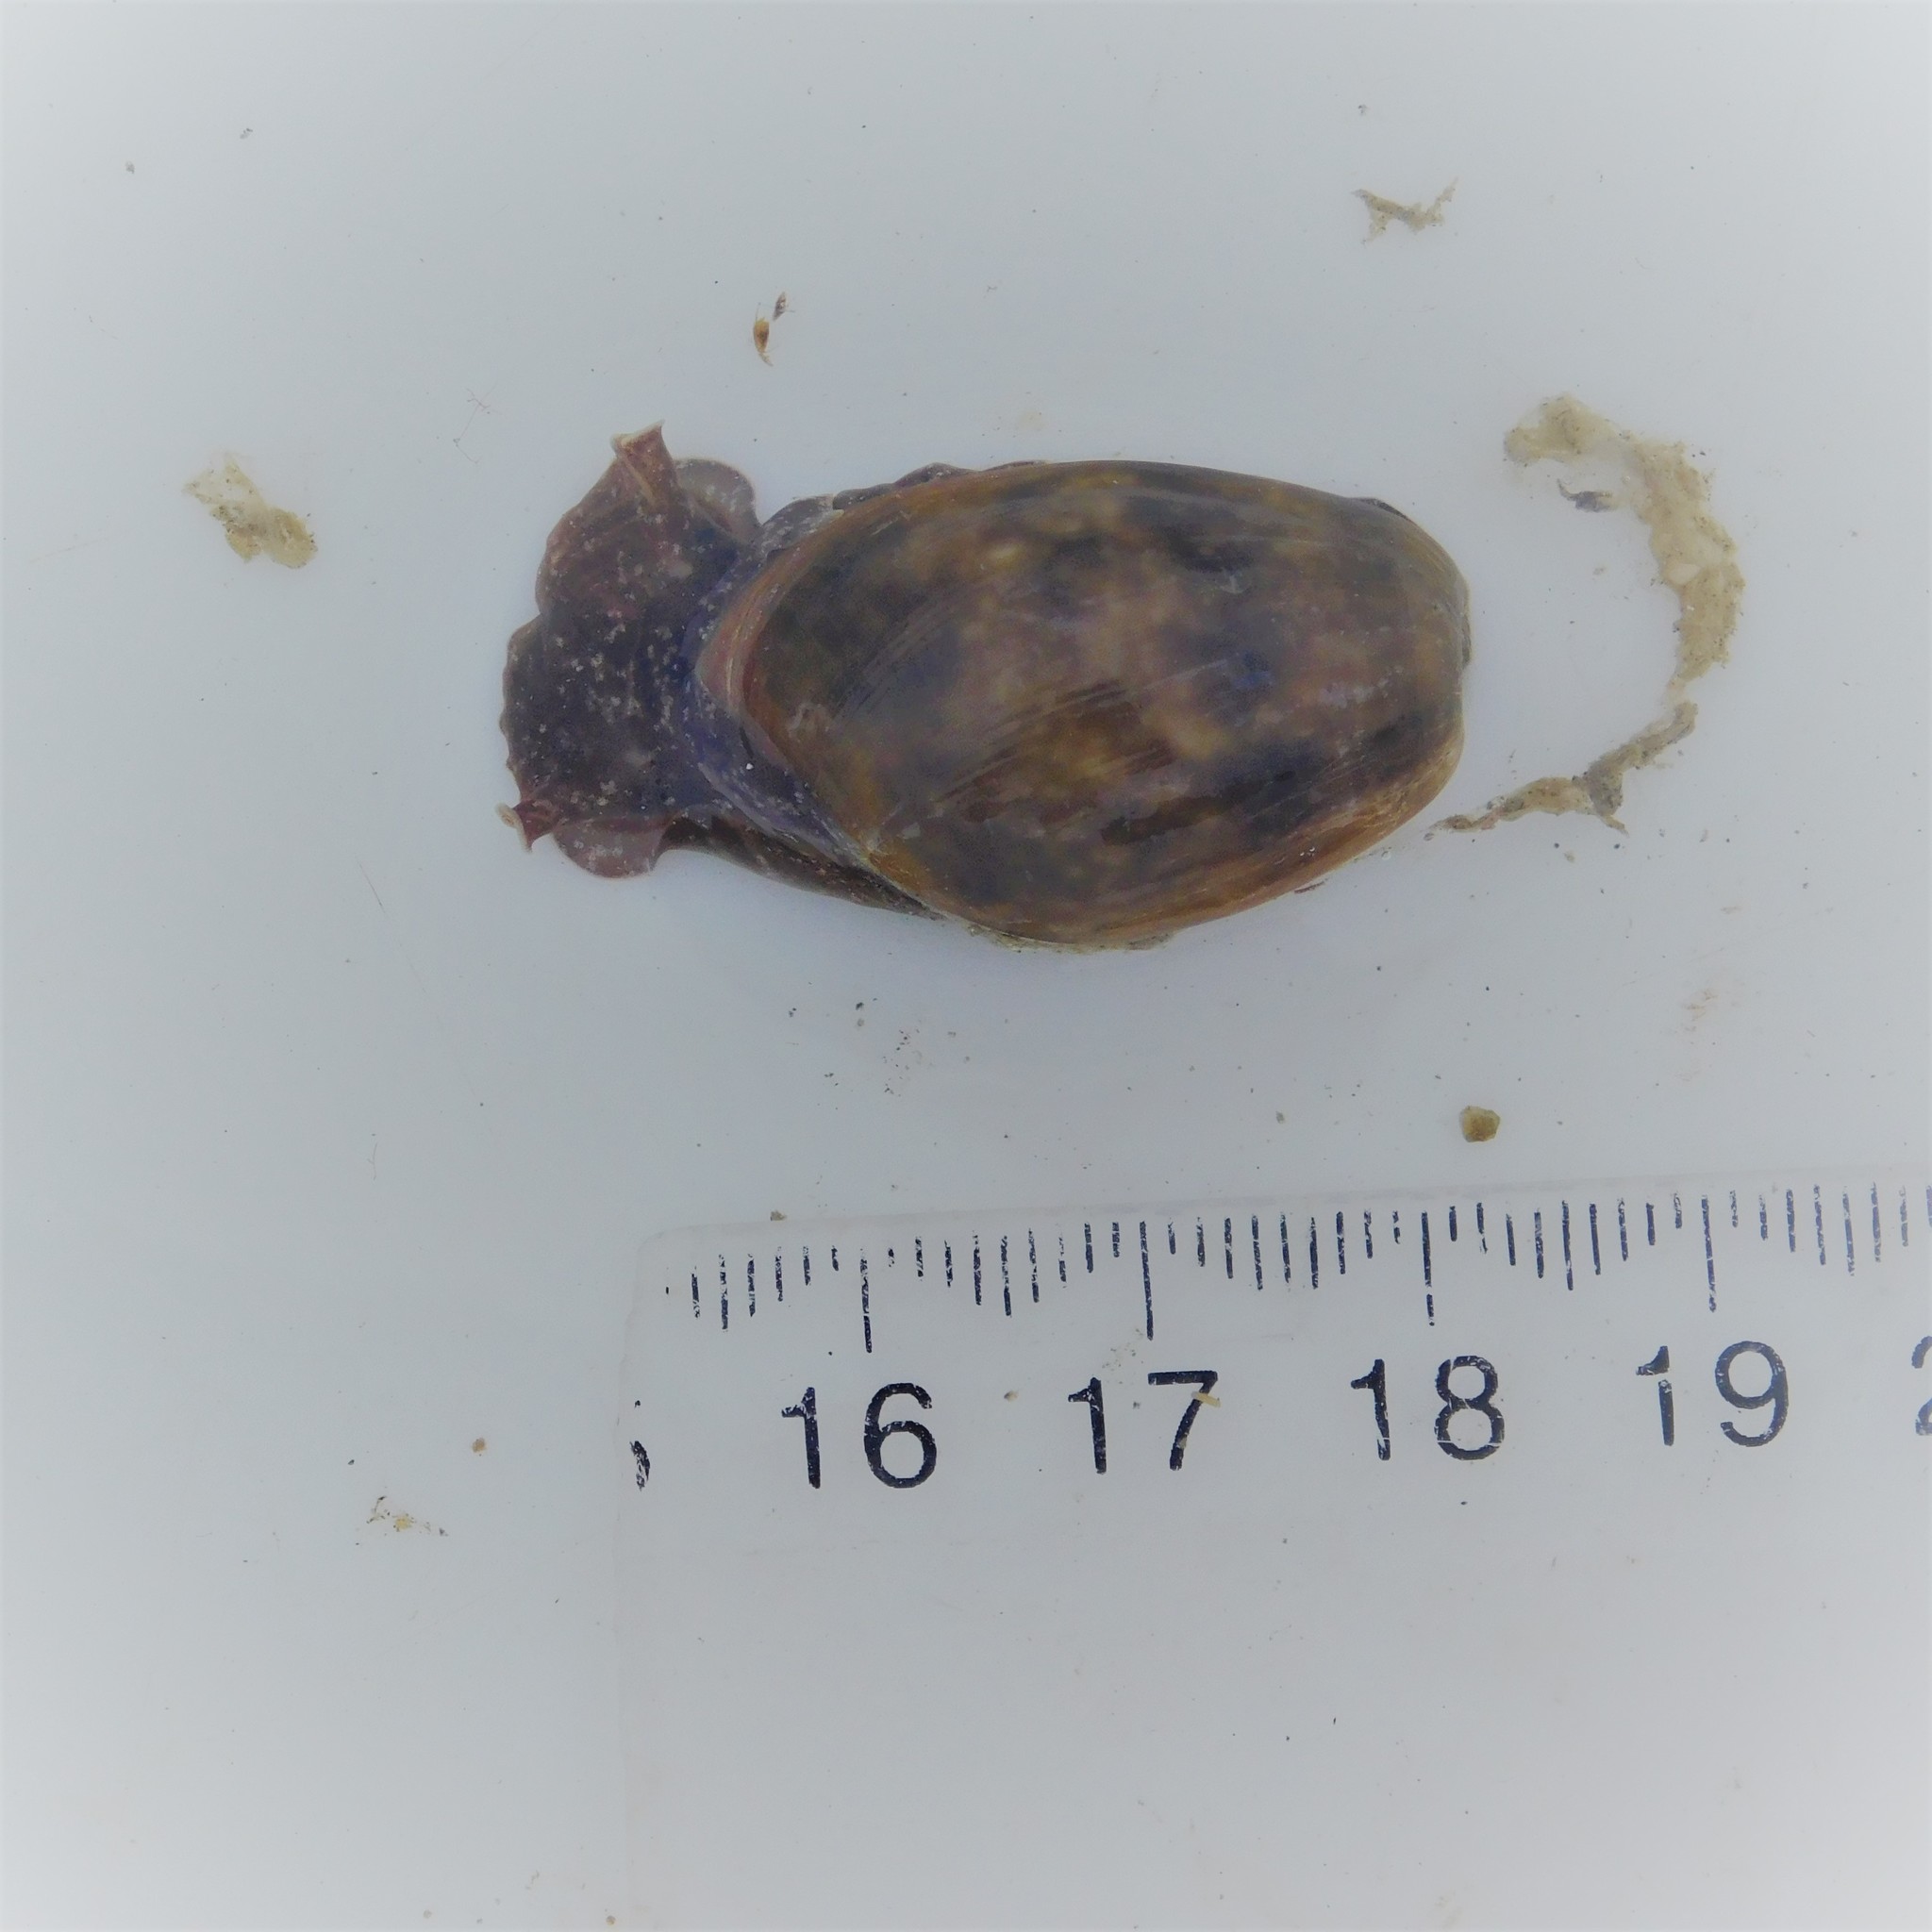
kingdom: Animalia
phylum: Mollusca
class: Gastropoda
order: Cephalaspidea
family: Bullidae
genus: Bulla
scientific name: Bulla quoyii
